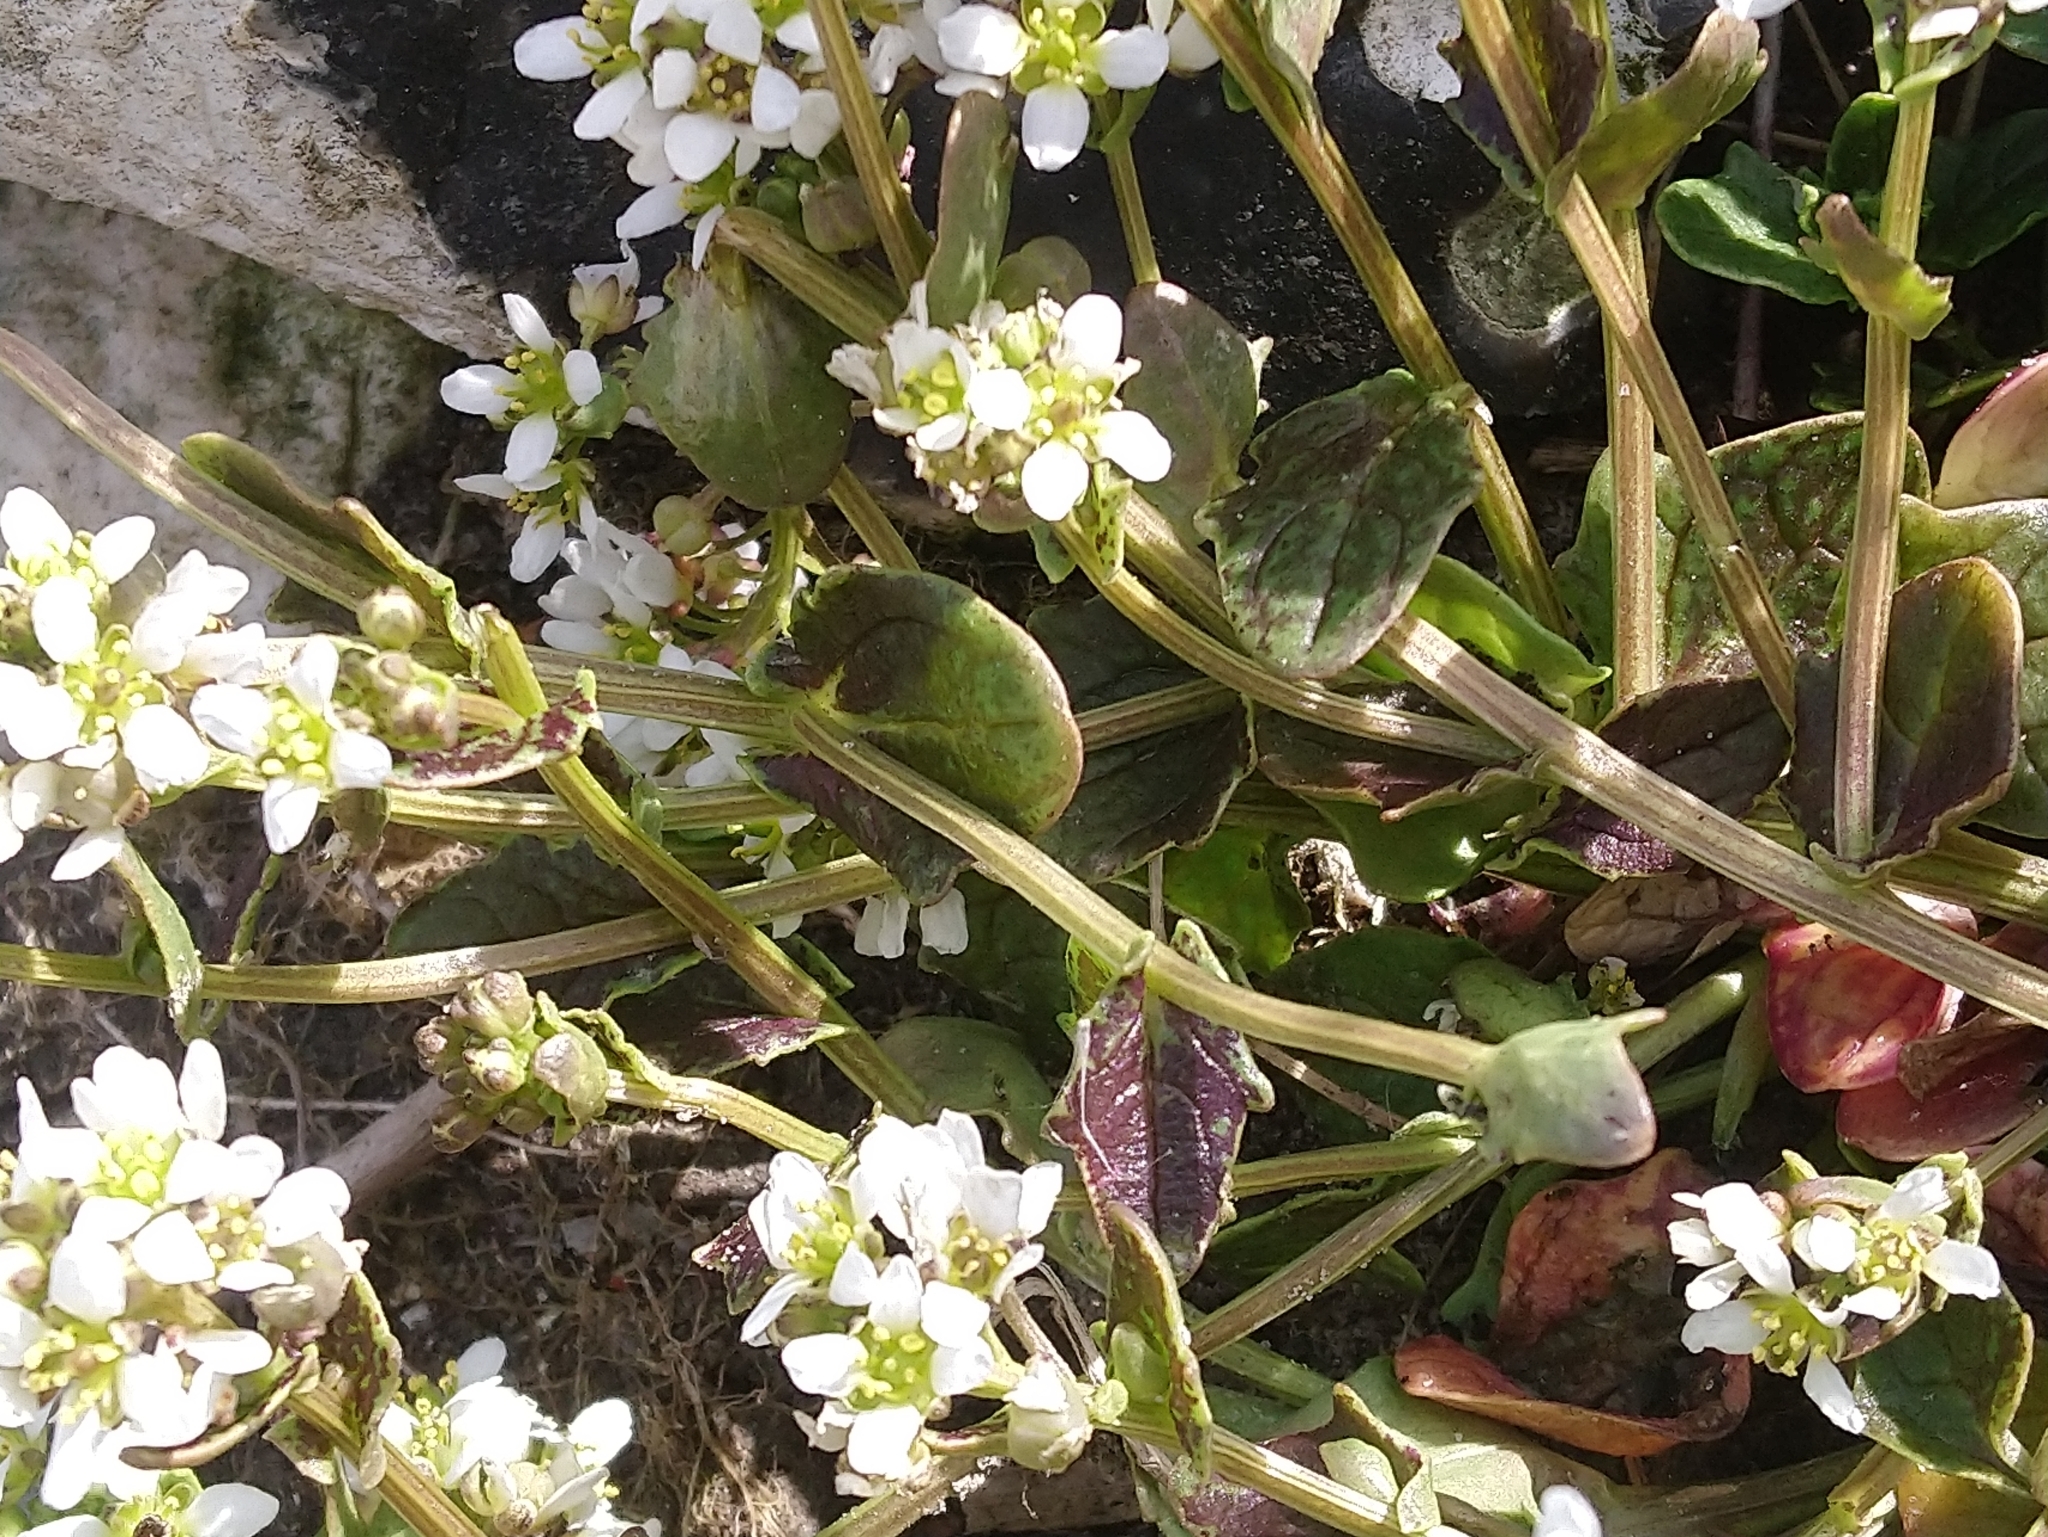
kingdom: Plantae
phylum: Tracheophyta
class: Magnoliopsida
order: Brassicales
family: Brassicaceae
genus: Cochlearia
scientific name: Cochlearia officinalis
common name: Scurvy-grass
